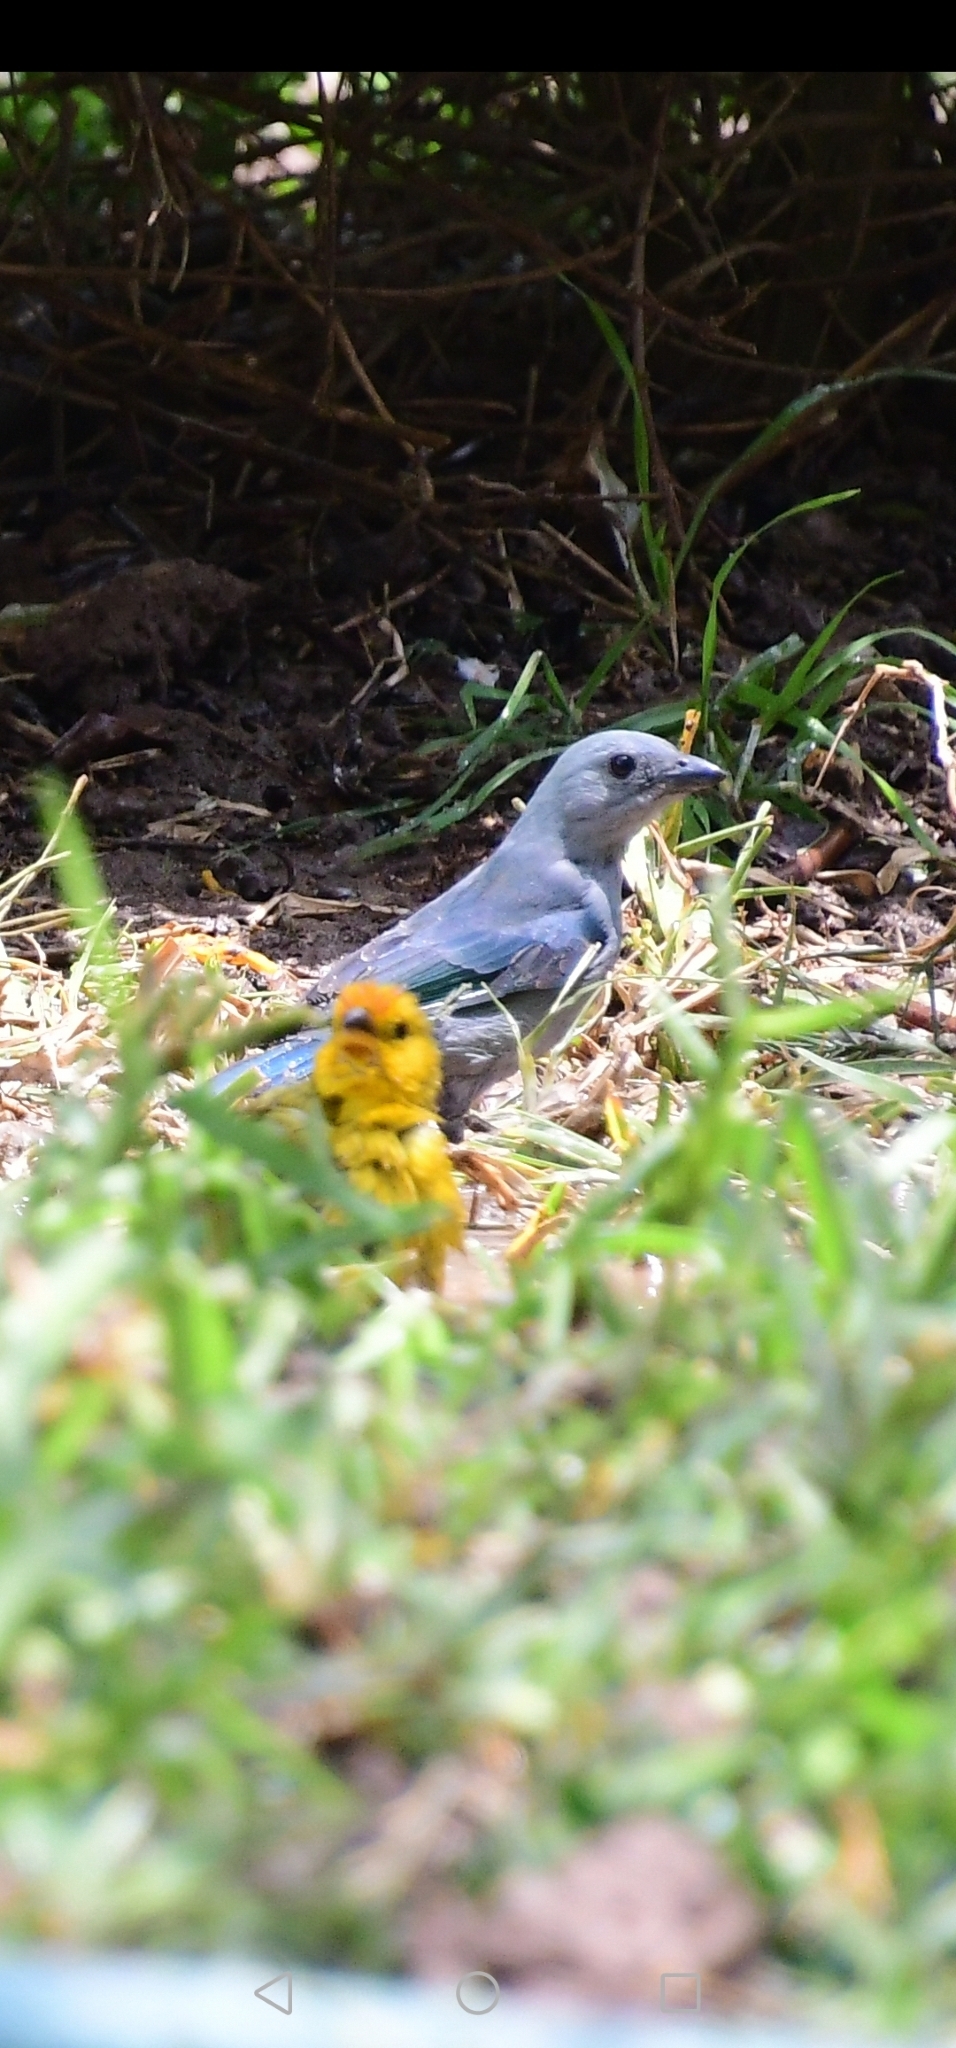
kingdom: Animalia
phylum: Chordata
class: Aves
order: Passeriformes
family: Thraupidae
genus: Thraupis
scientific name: Thraupis episcopus
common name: Blue-grey tanager
